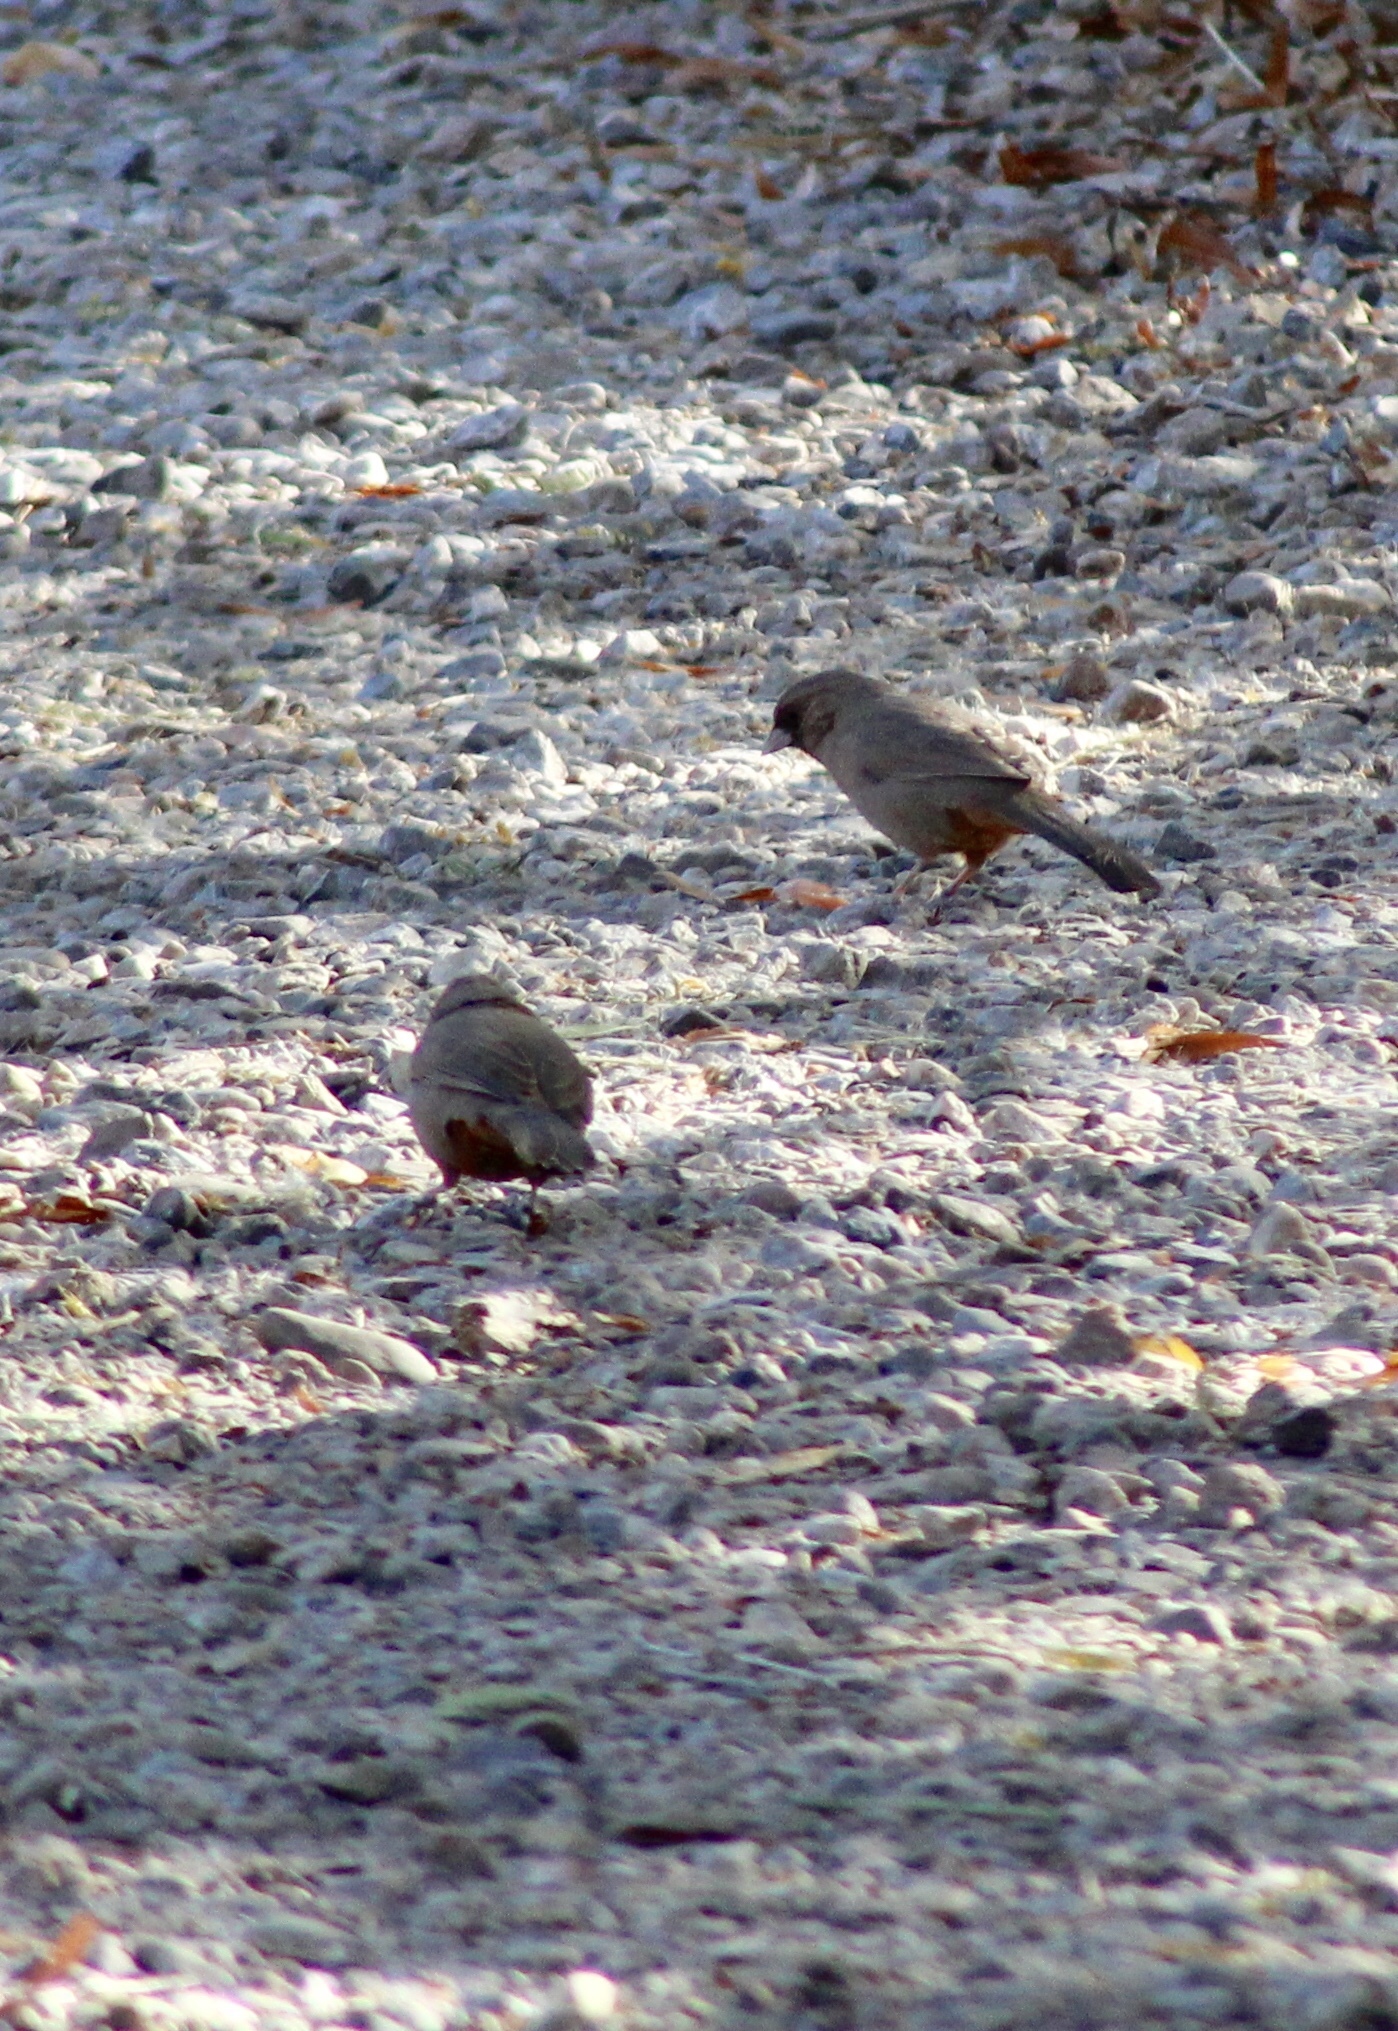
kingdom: Animalia
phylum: Chordata
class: Aves
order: Passeriformes
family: Passerellidae
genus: Melozone
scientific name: Melozone aberti
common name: Abert's towhee
